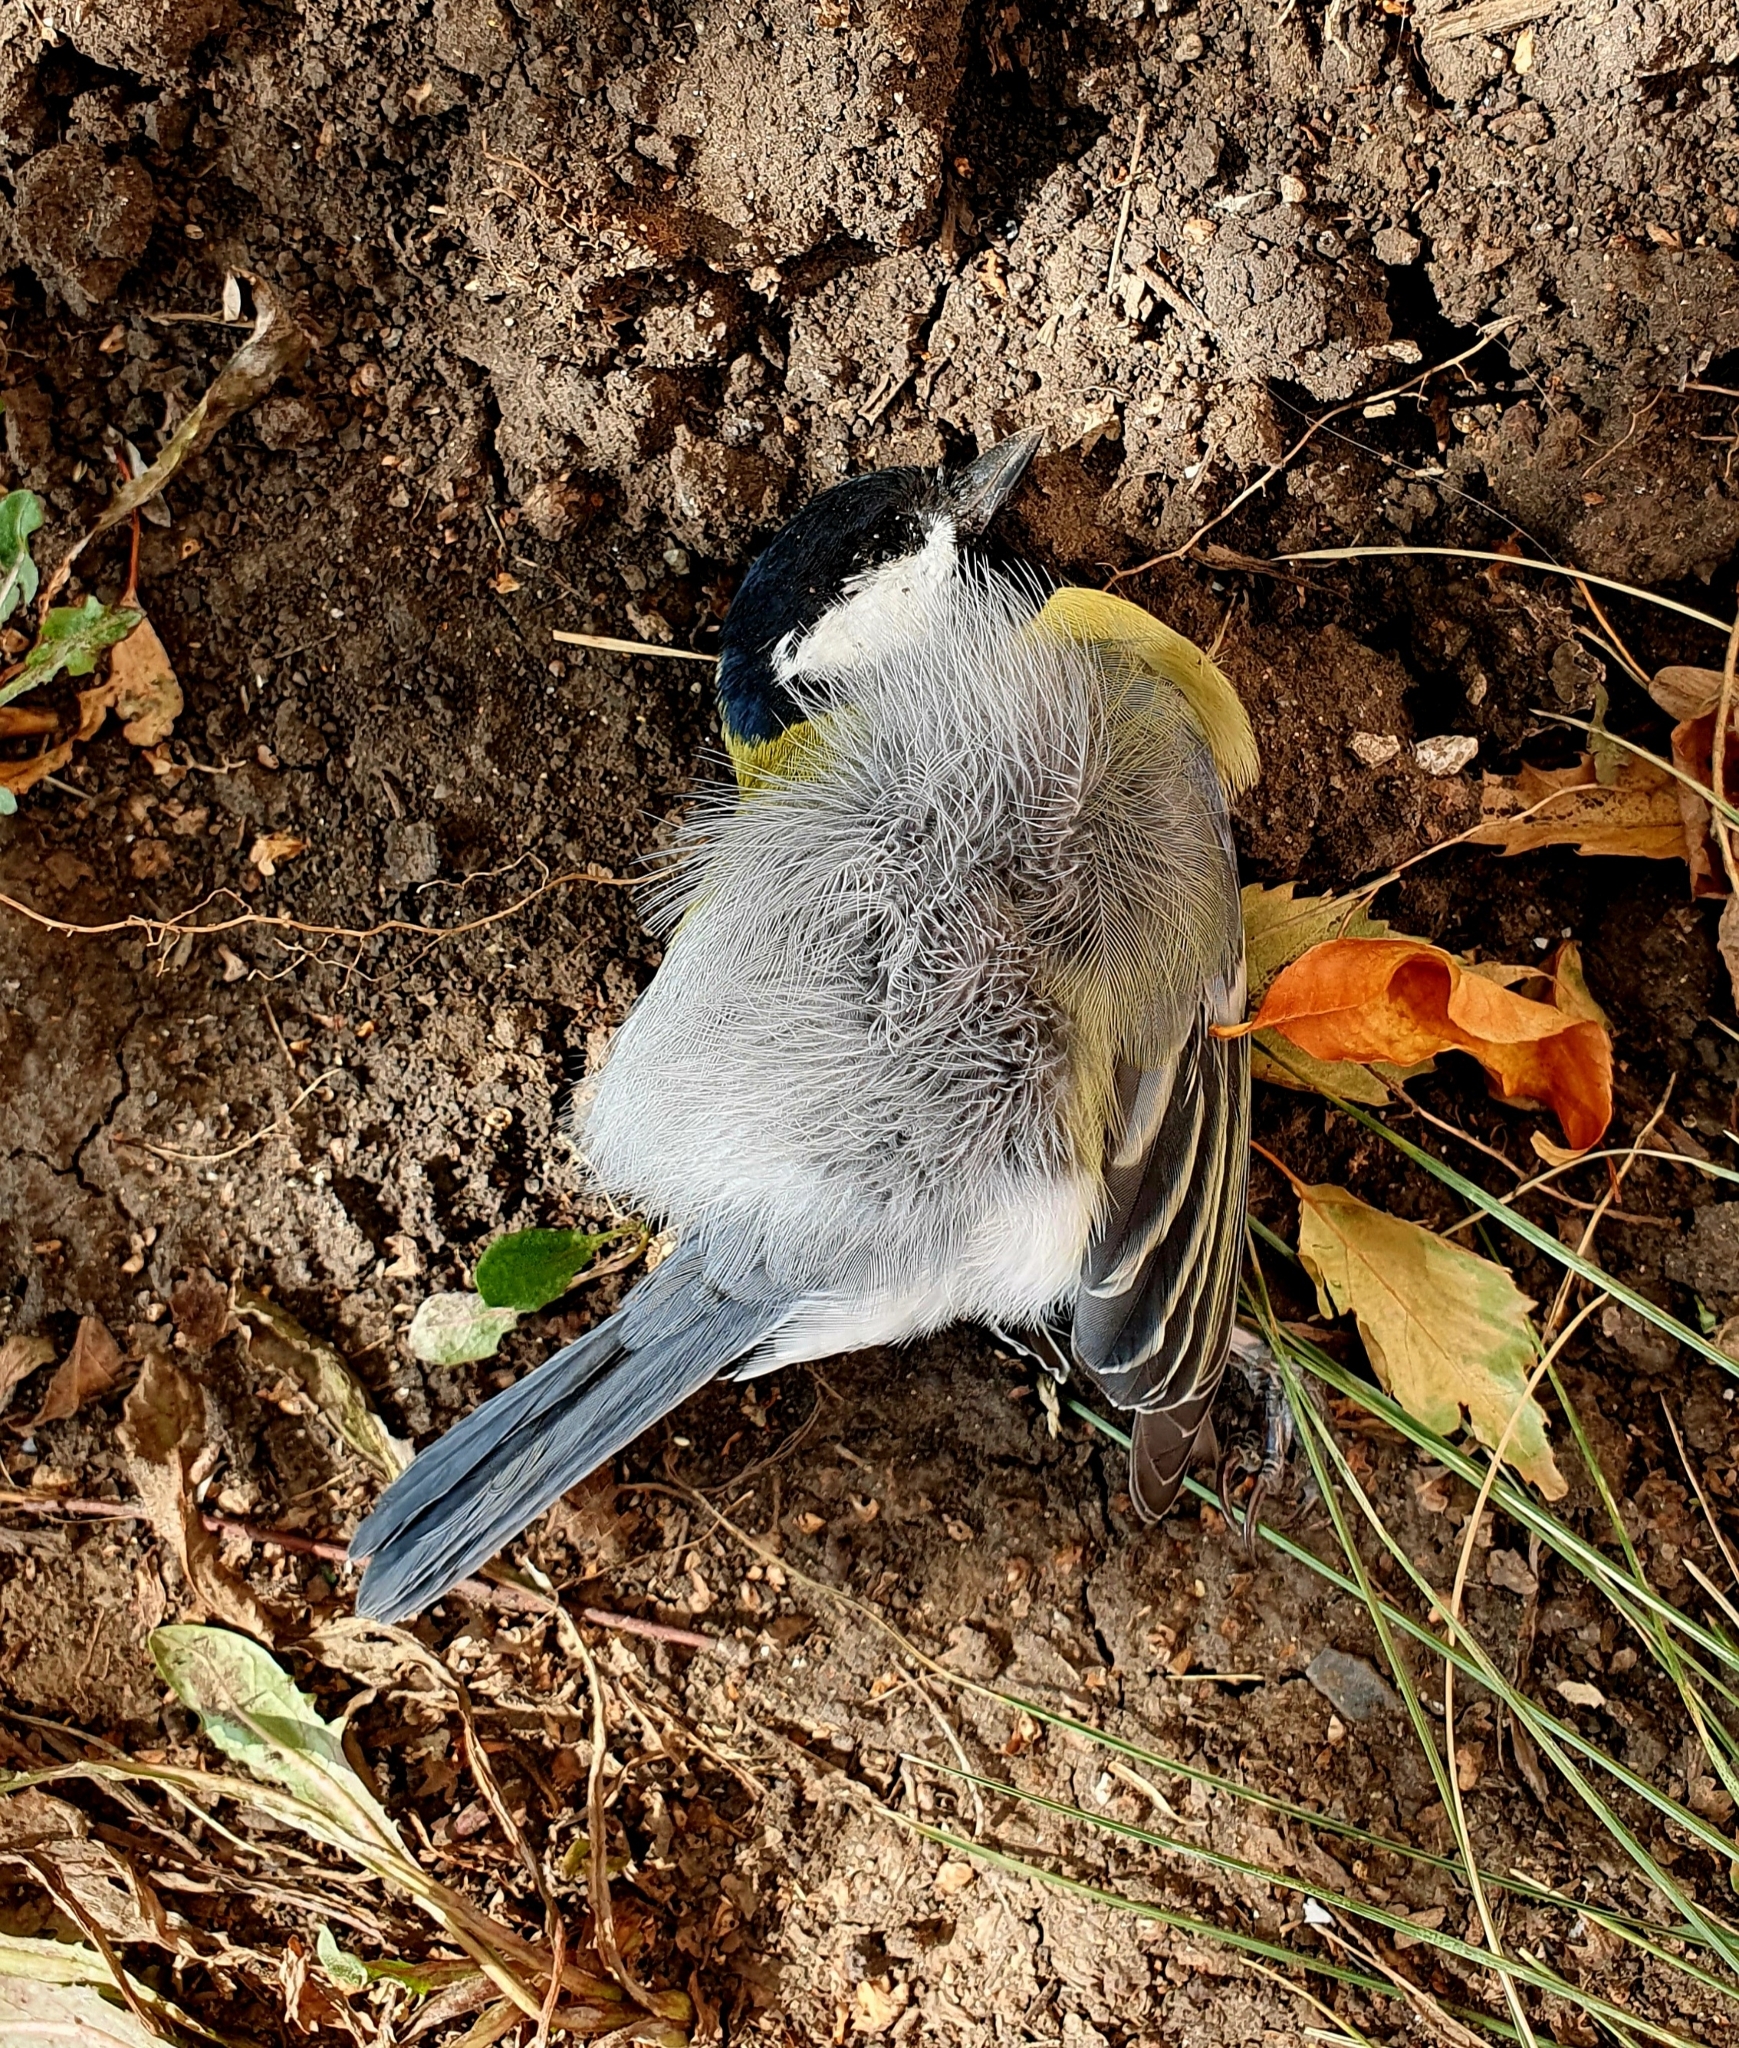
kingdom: Animalia
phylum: Chordata
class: Aves
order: Passeriformes
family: Paridae
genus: Parus
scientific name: Parus major
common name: Great tit
